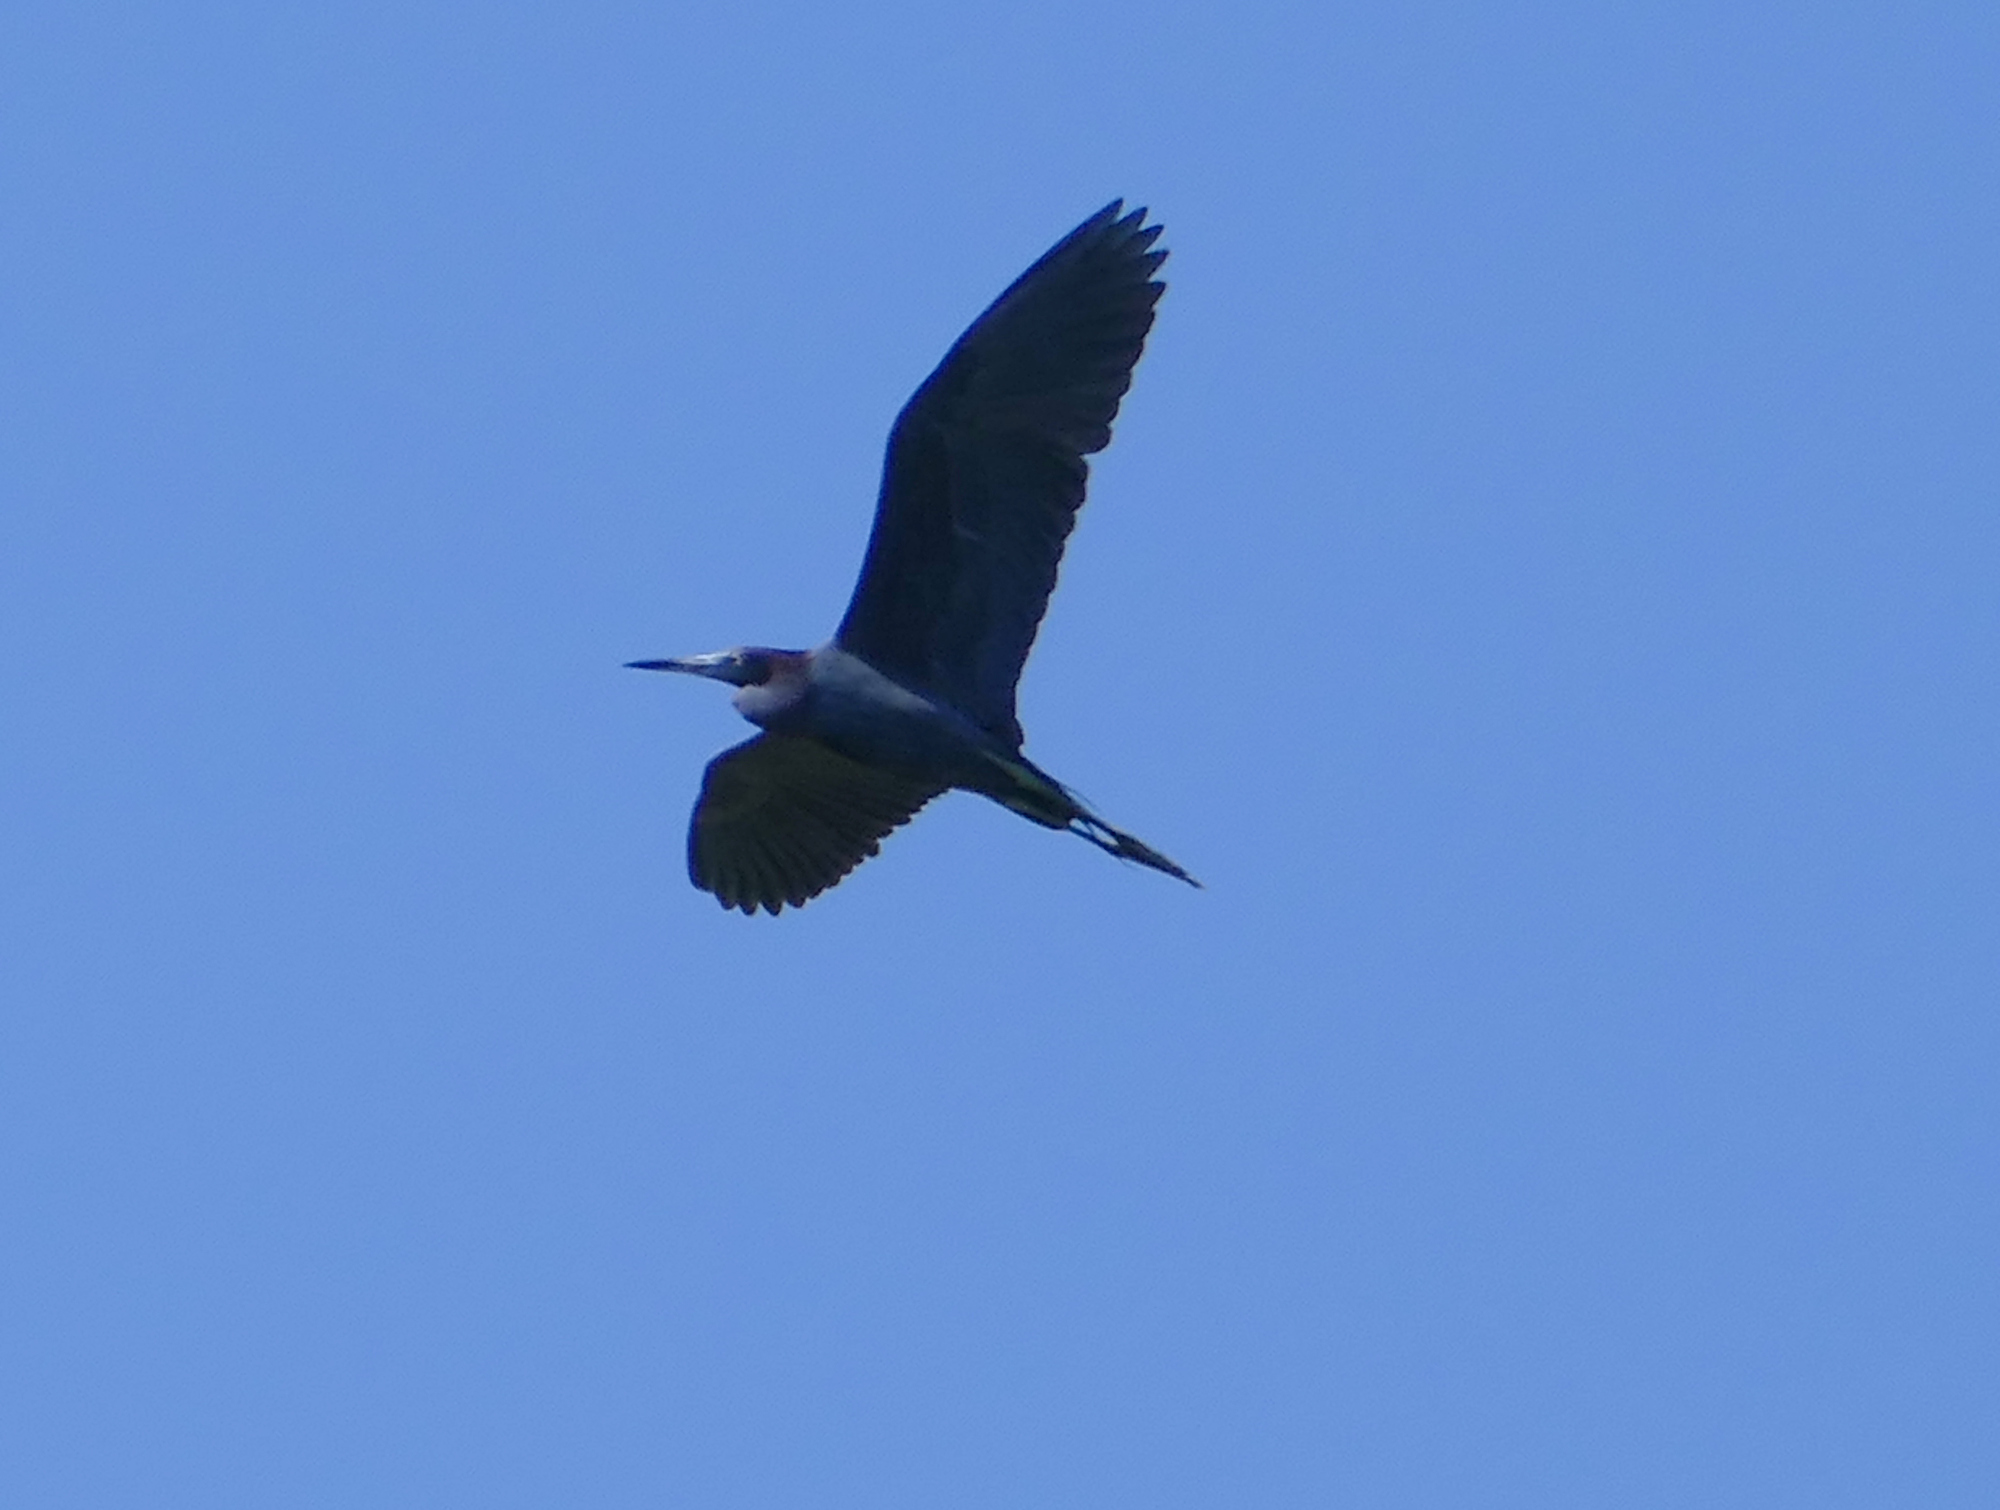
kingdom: Animalia
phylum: Chordata
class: Aves
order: Pelecaniformes
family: Ardeidae
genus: Egretta
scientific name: Egretta caerulea
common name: Little blue heron
